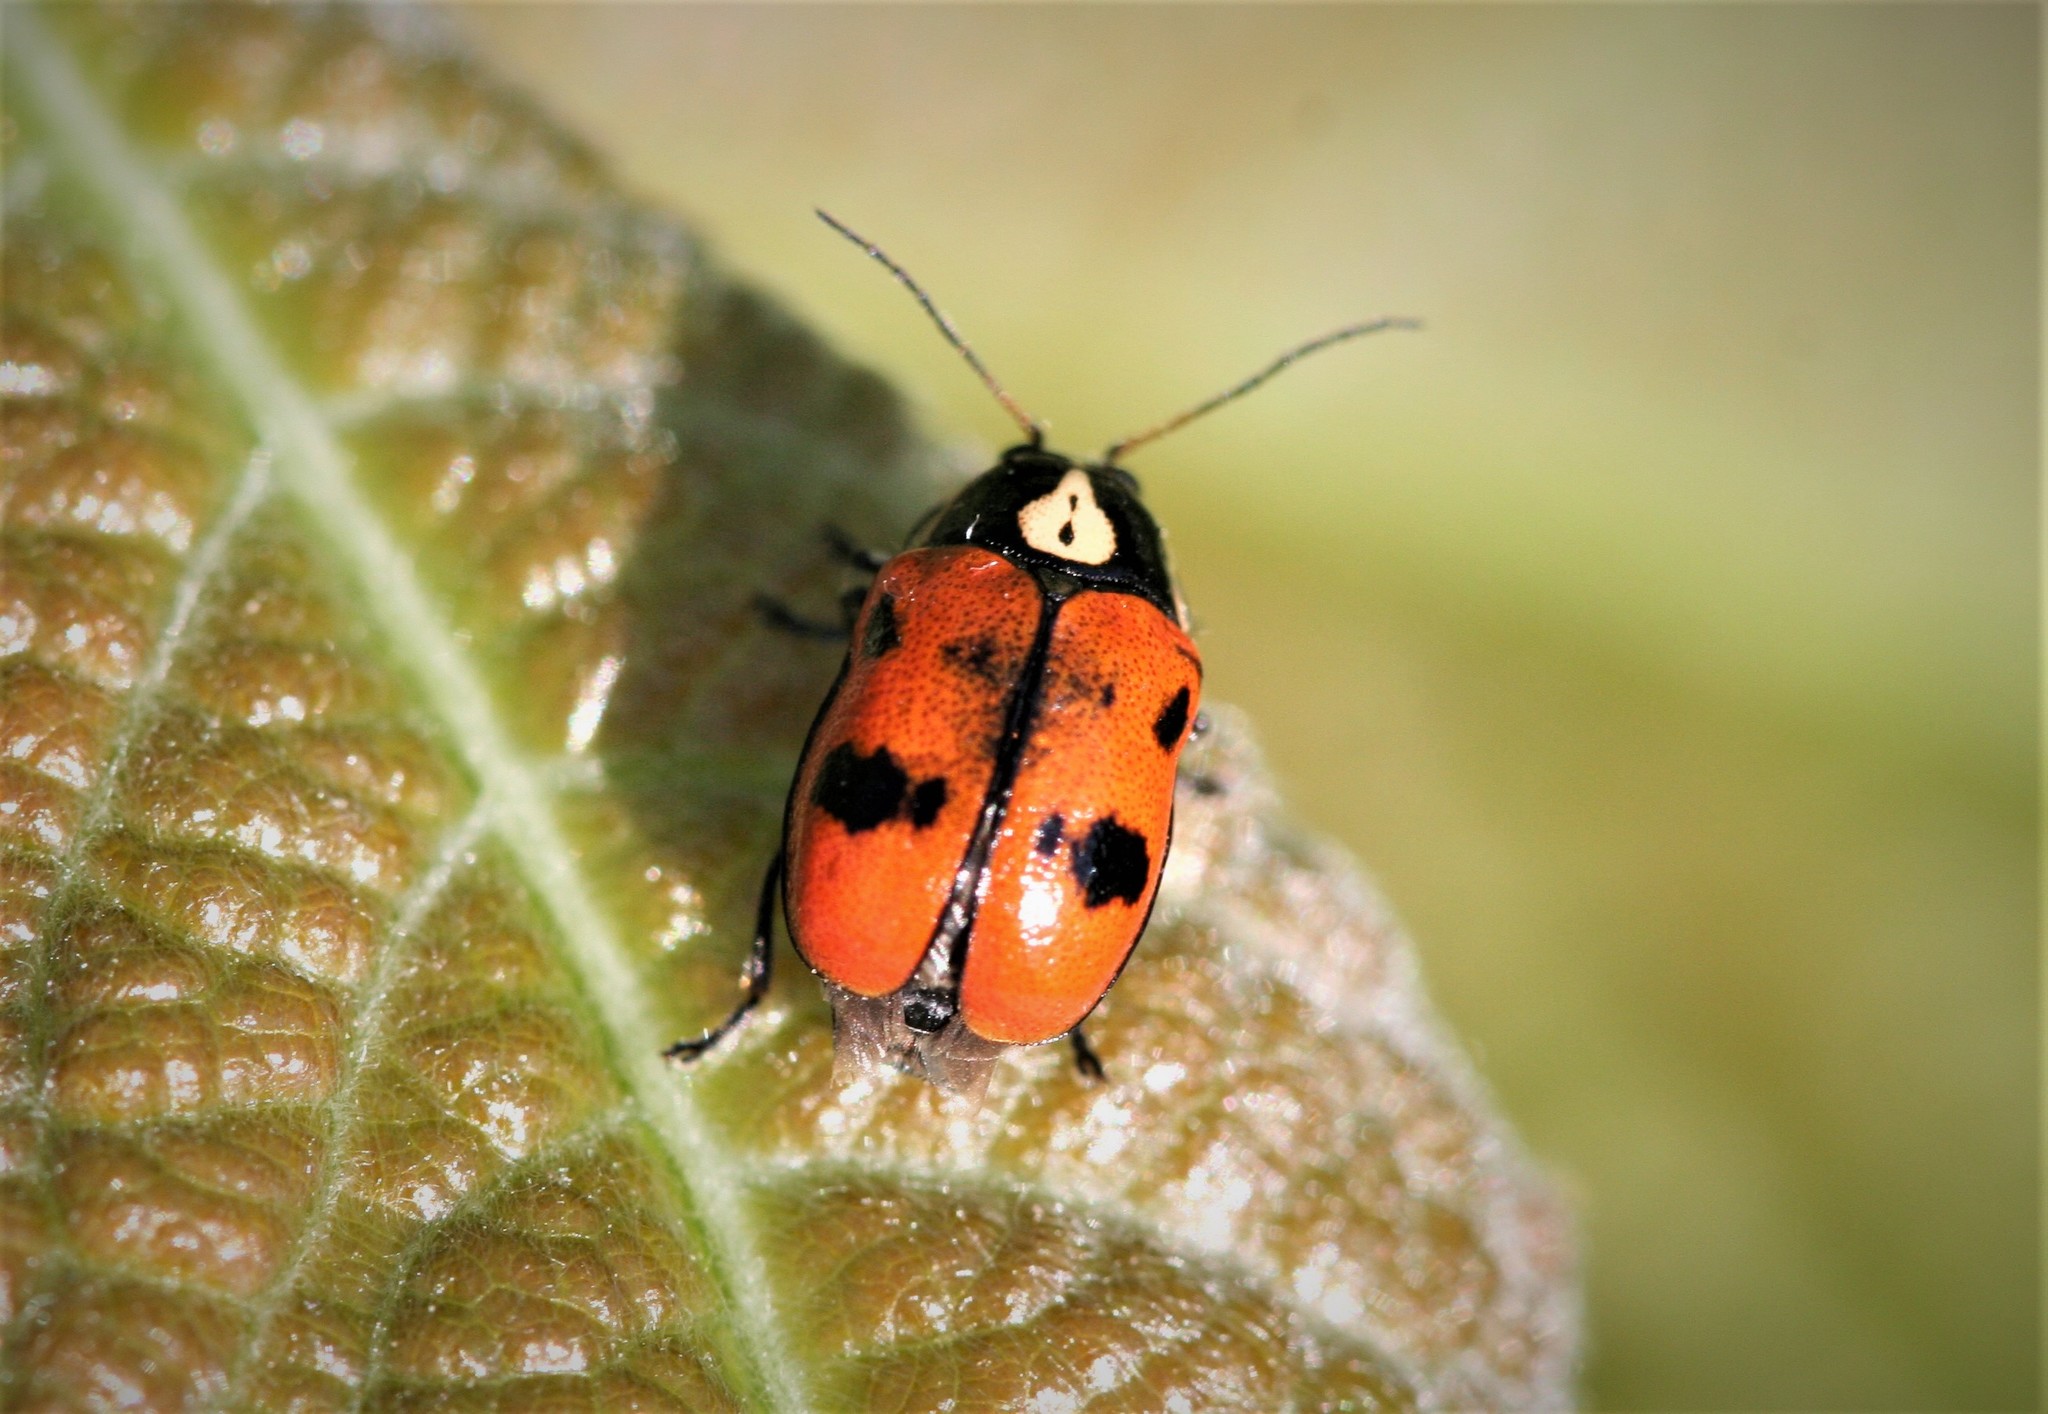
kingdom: Animalia
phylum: Arthropoda
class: Insecta
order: Coleoptera
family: Chrysomelidae
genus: Cryptocephalus
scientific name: Cryptocephalus octopunctatus
